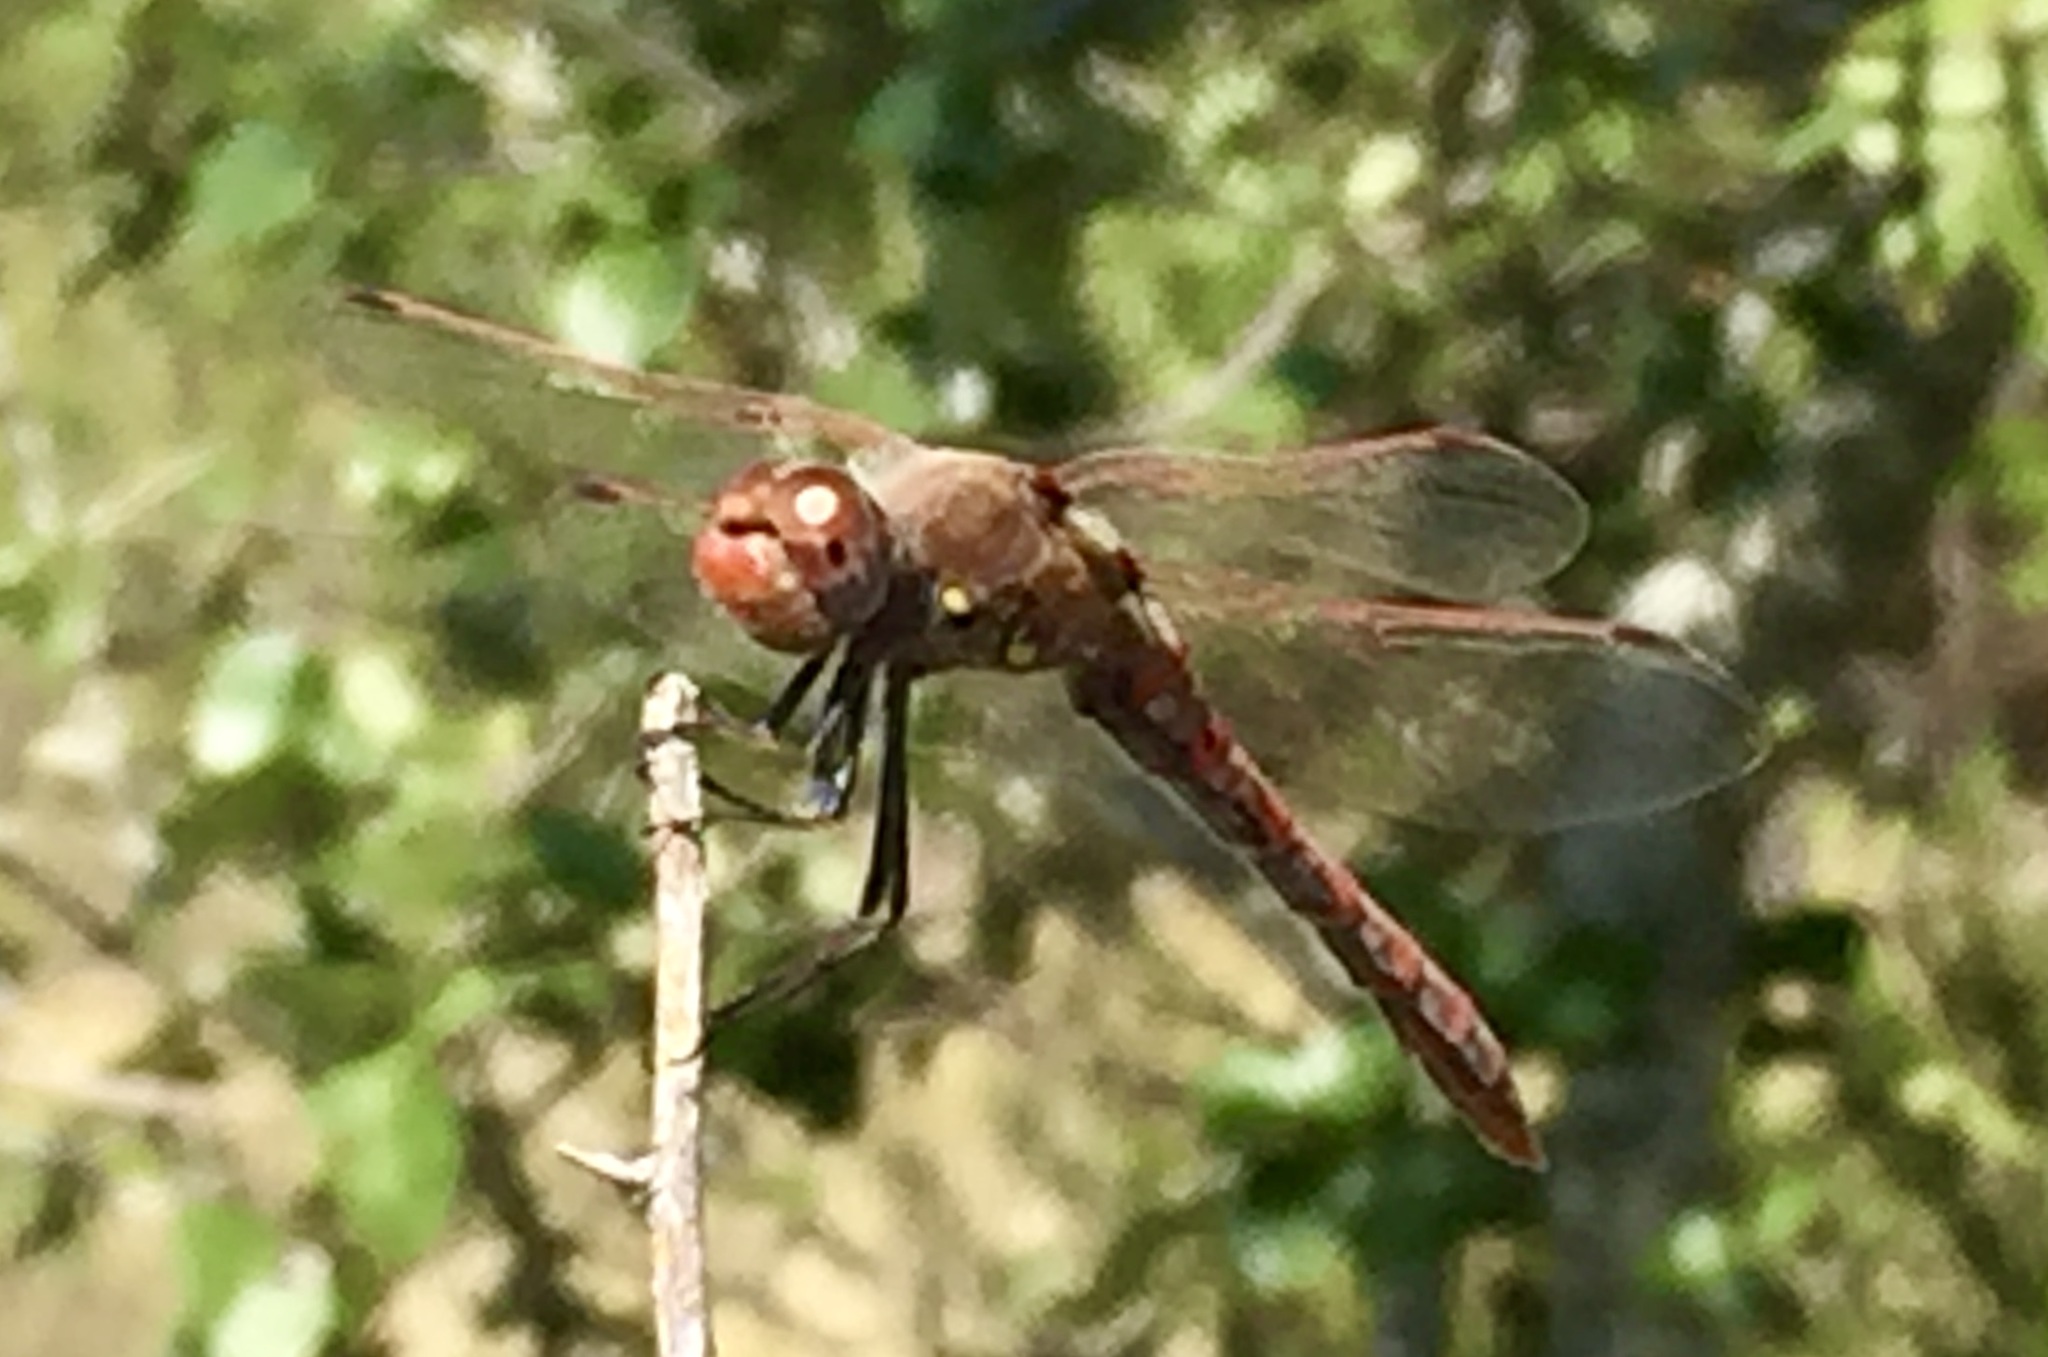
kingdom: Animalia
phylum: Arthropoda
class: Insecta
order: Odonata
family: Libellulidae
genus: Sympetrum
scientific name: Sympetrum corruptum
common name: Variegated meadowhawk
